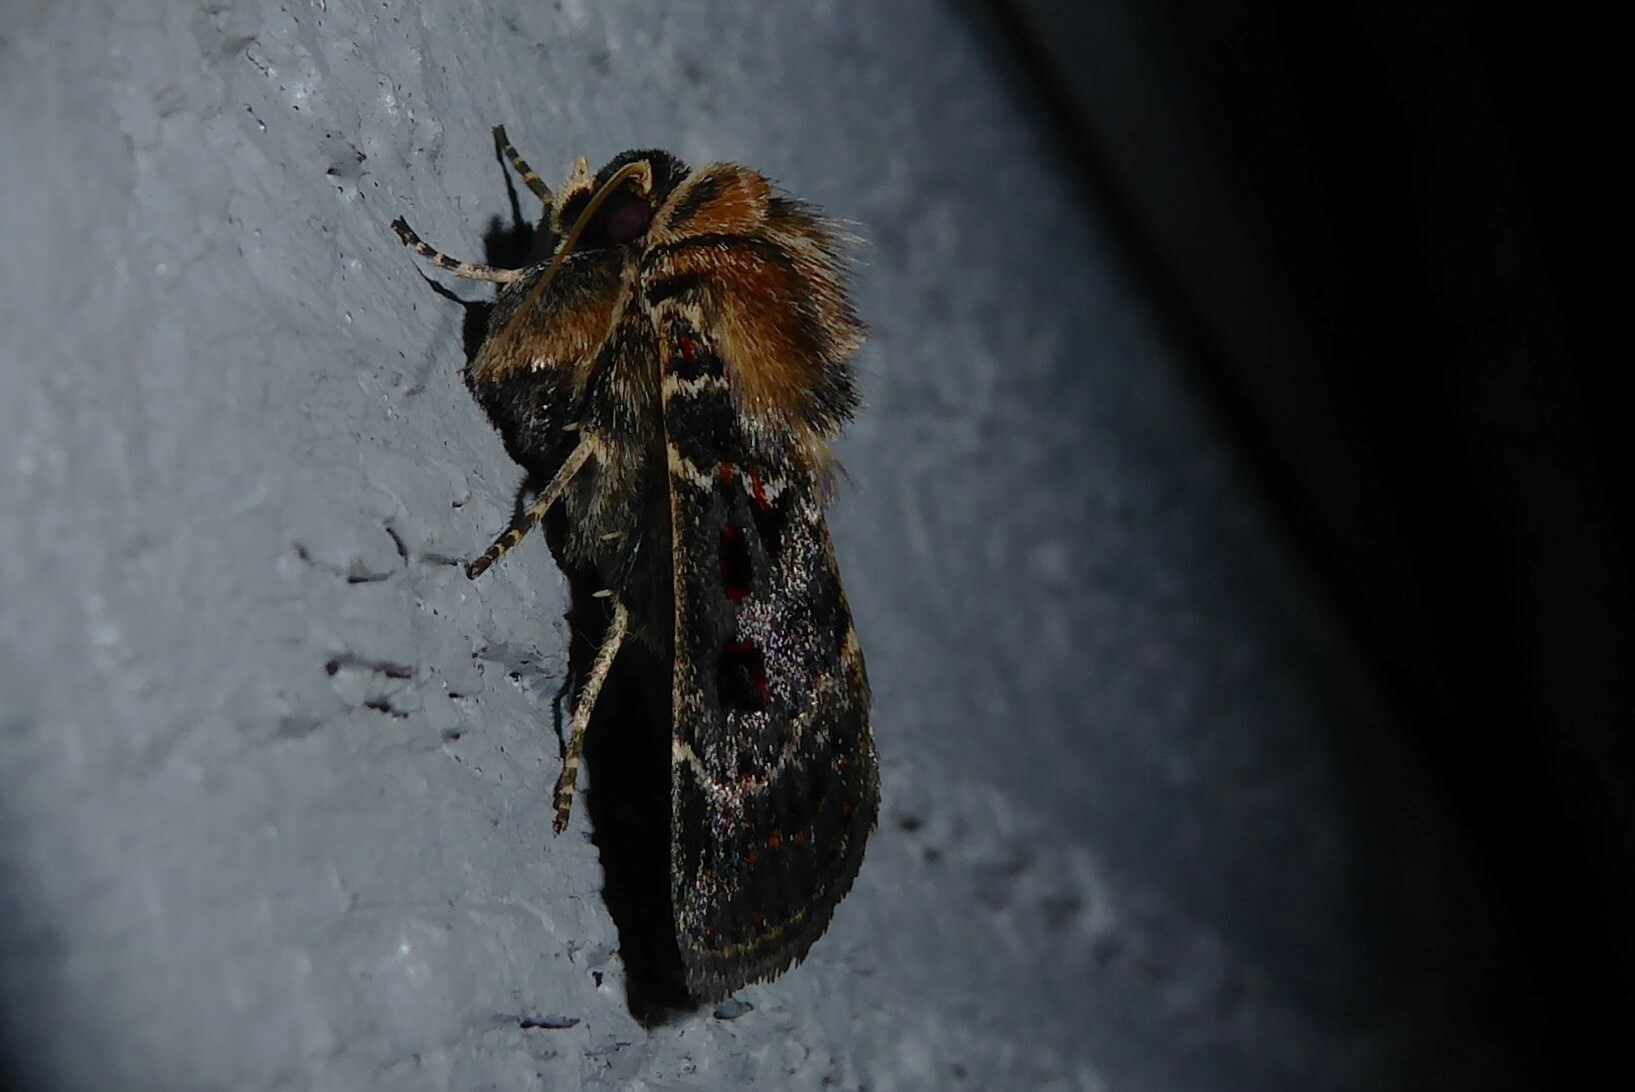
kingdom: Animalia
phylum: Arthropoda
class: Insecta
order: Lepidoptera
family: Noctuidae
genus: Proteuxoa
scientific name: Proteuxoa sanguinipuncta
